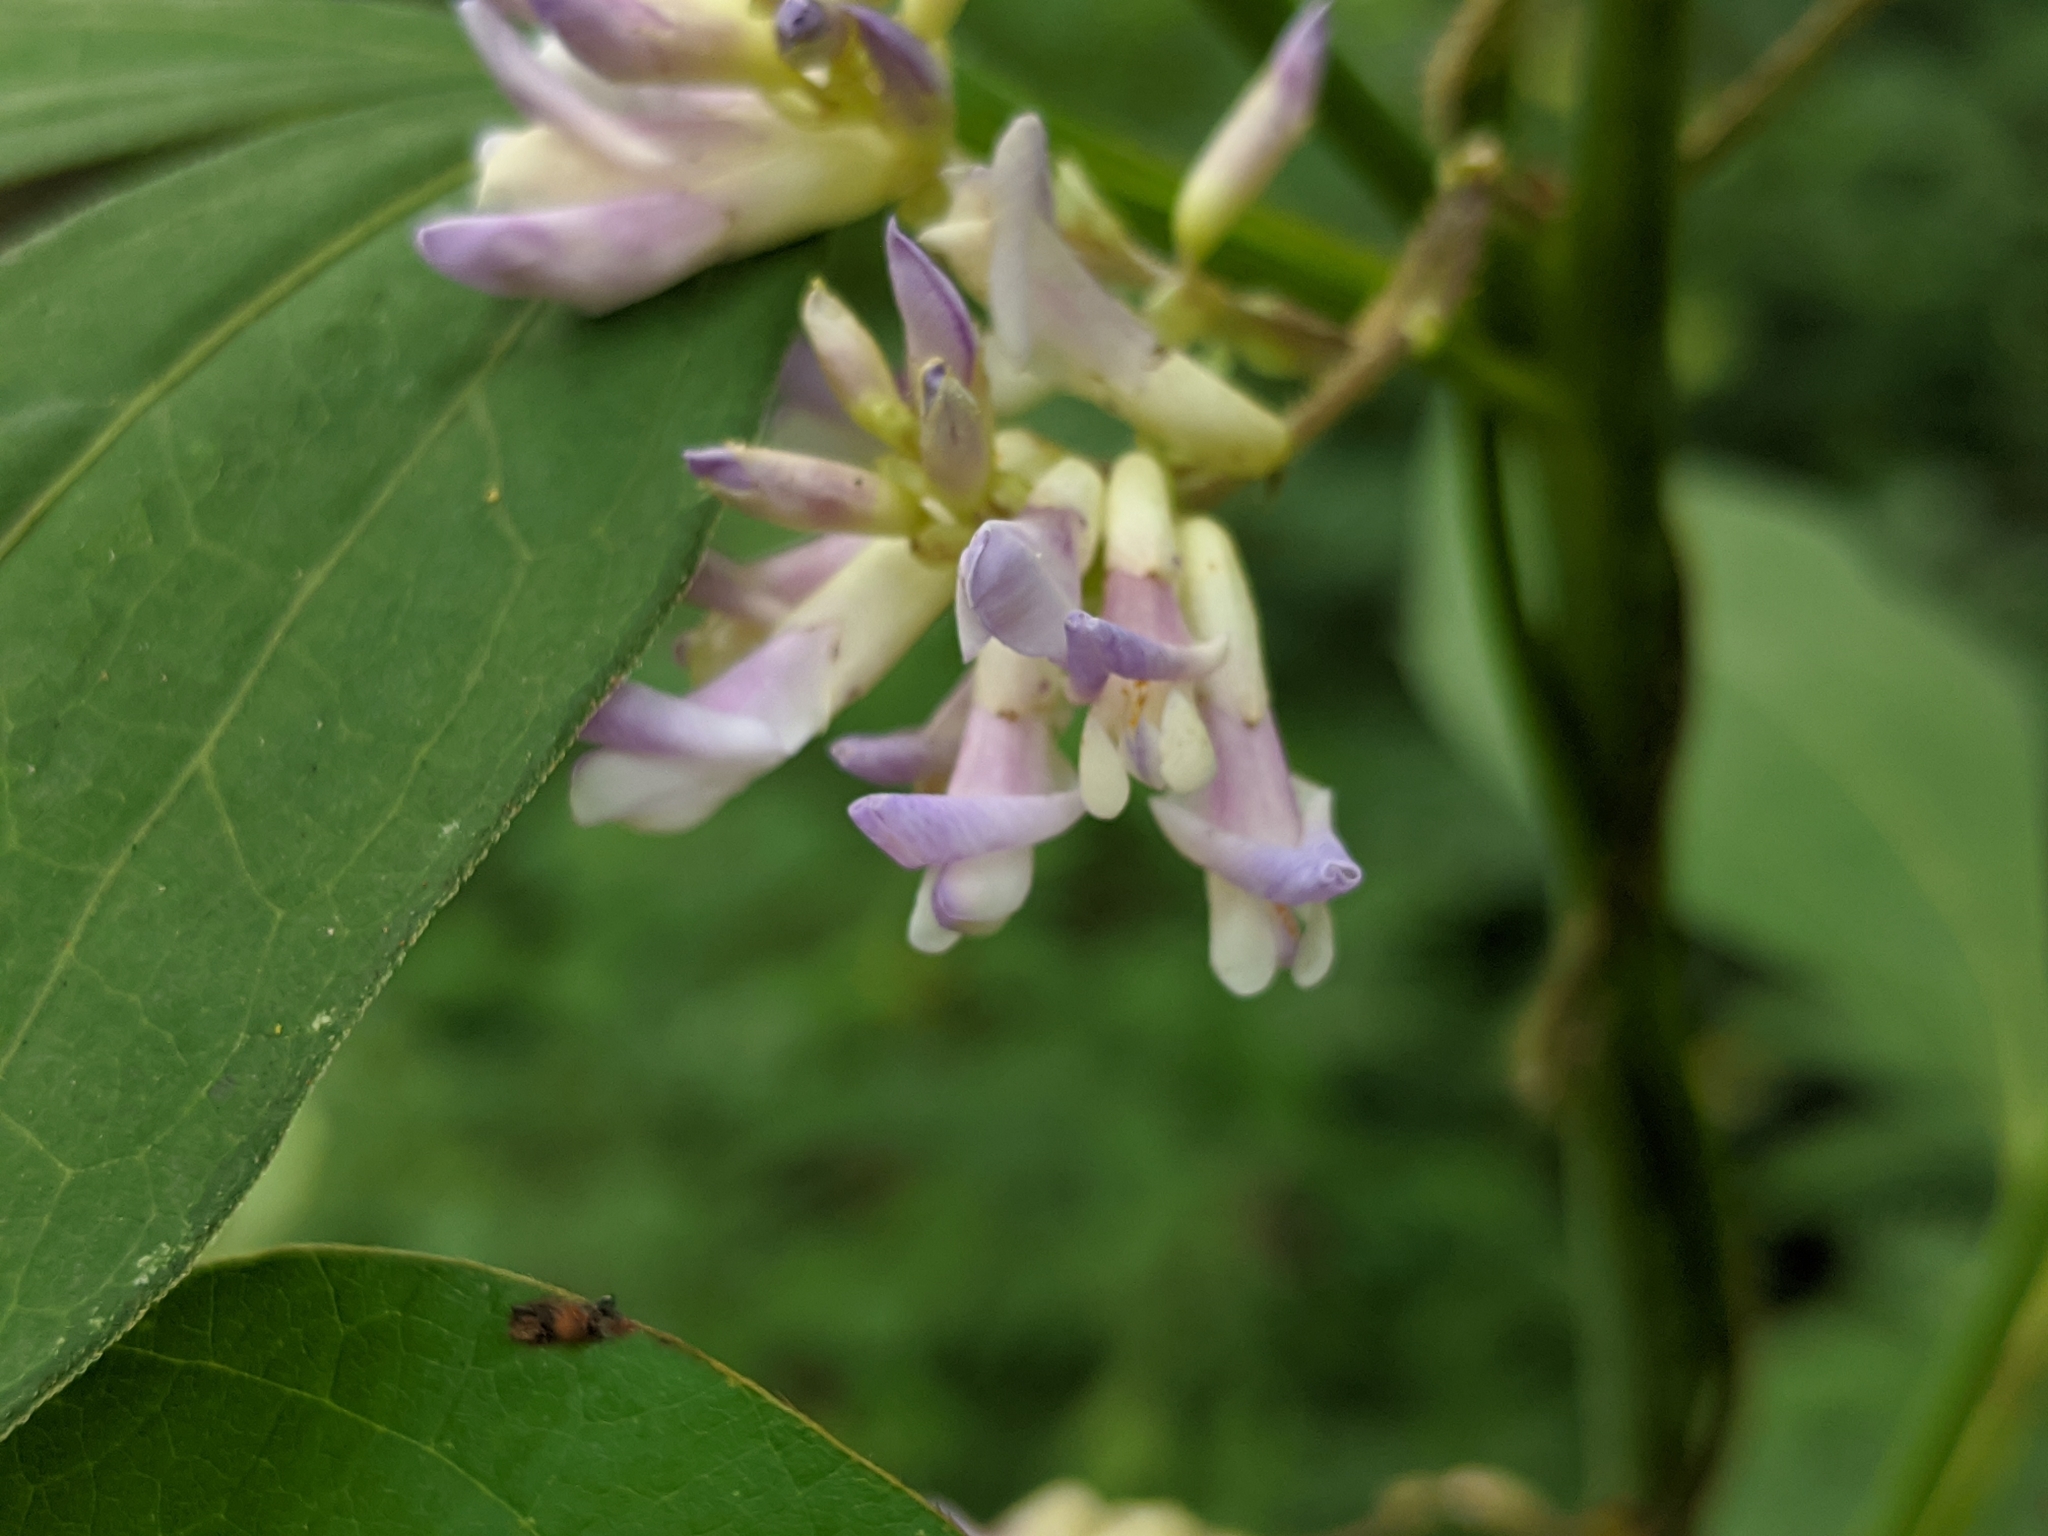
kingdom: Plantae
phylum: Tracheophyta
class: Magnoliopsida
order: Fabales
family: Fabaceae
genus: Amphicarpaea
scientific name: Amphicarpaea bracteata
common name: American hog peanut
